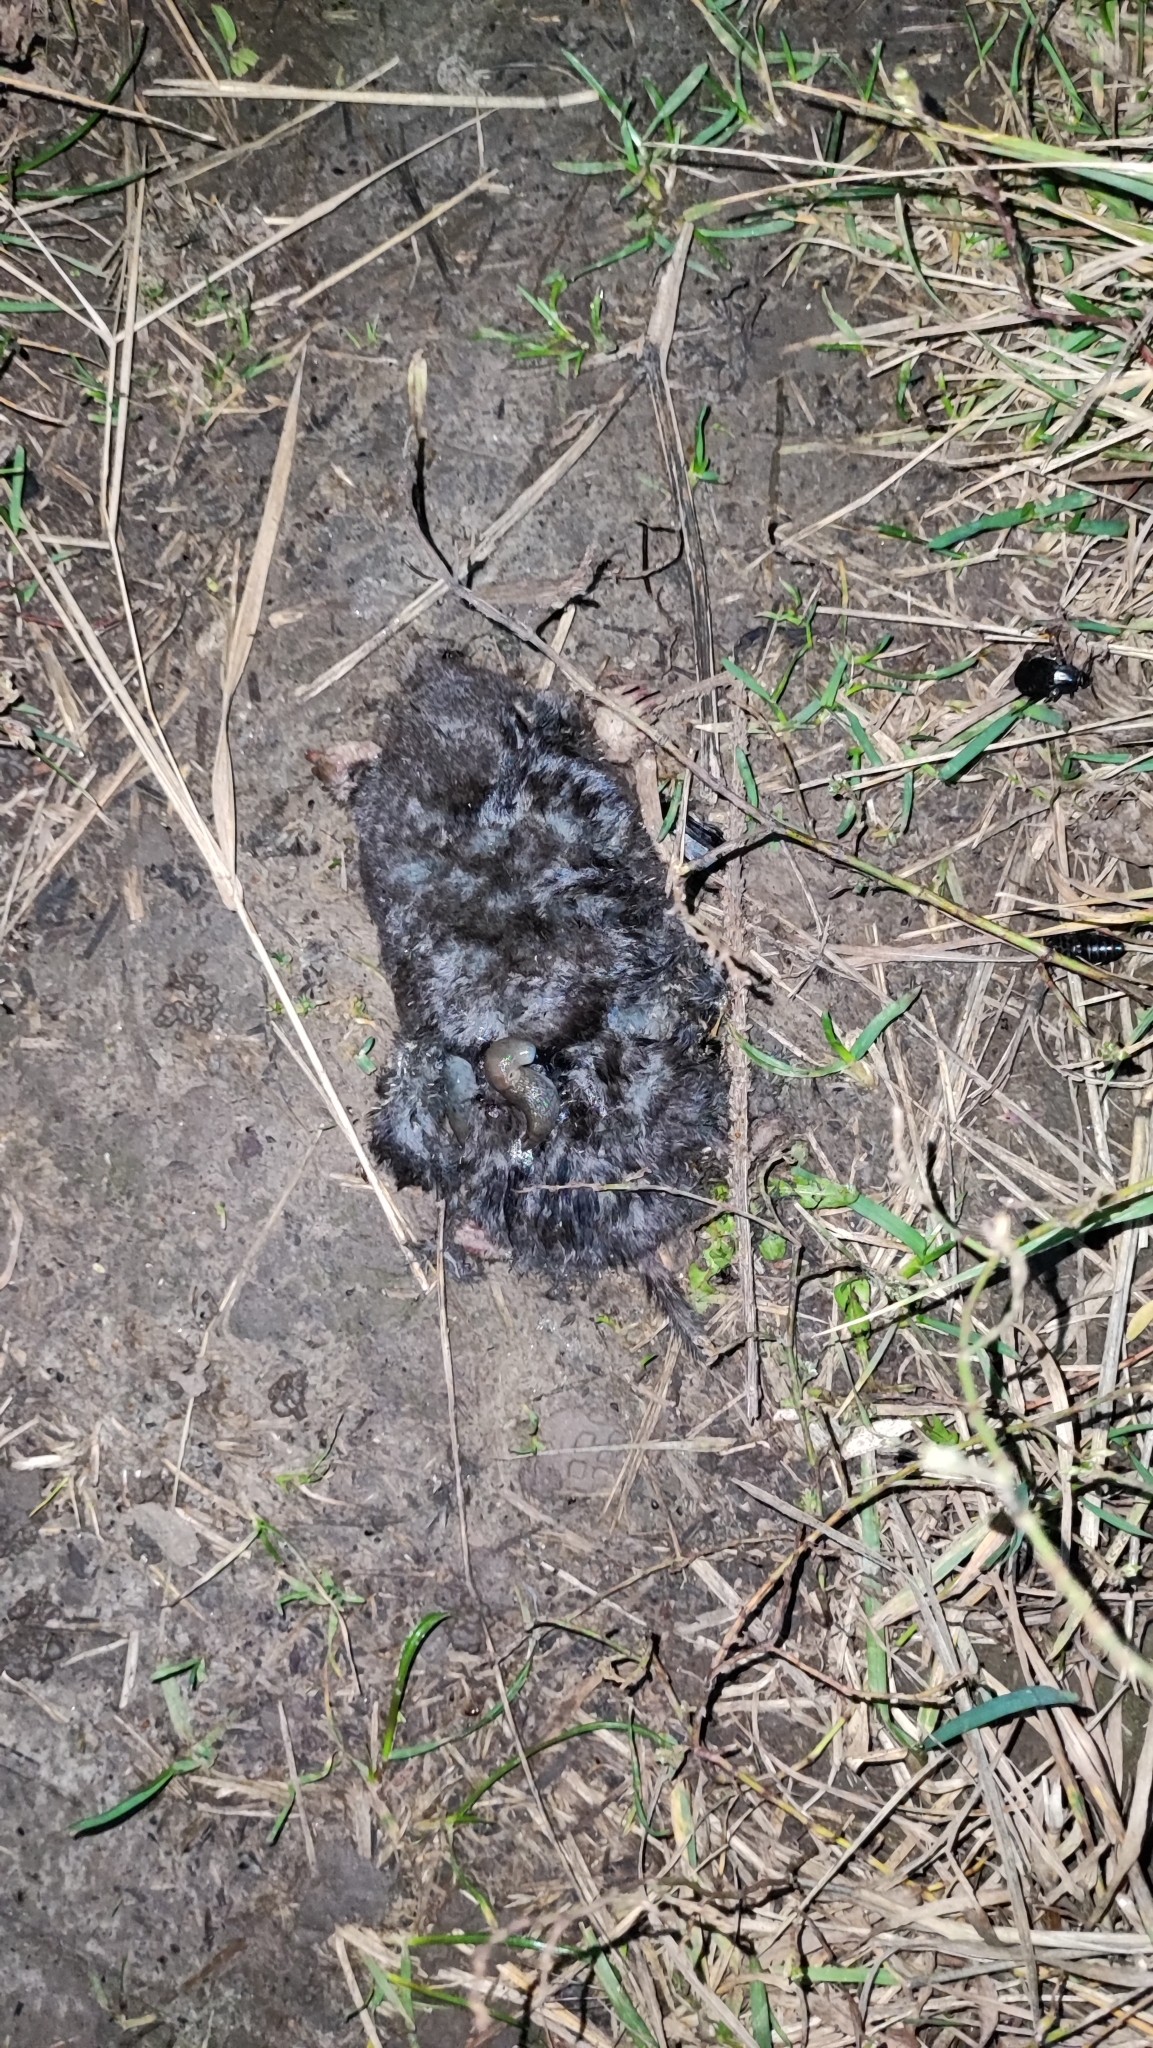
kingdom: Animalia
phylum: Chordata
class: Mammalia
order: Soricomorpha
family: Talpidae
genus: Talpa
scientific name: Talpa europaea
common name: European mole
